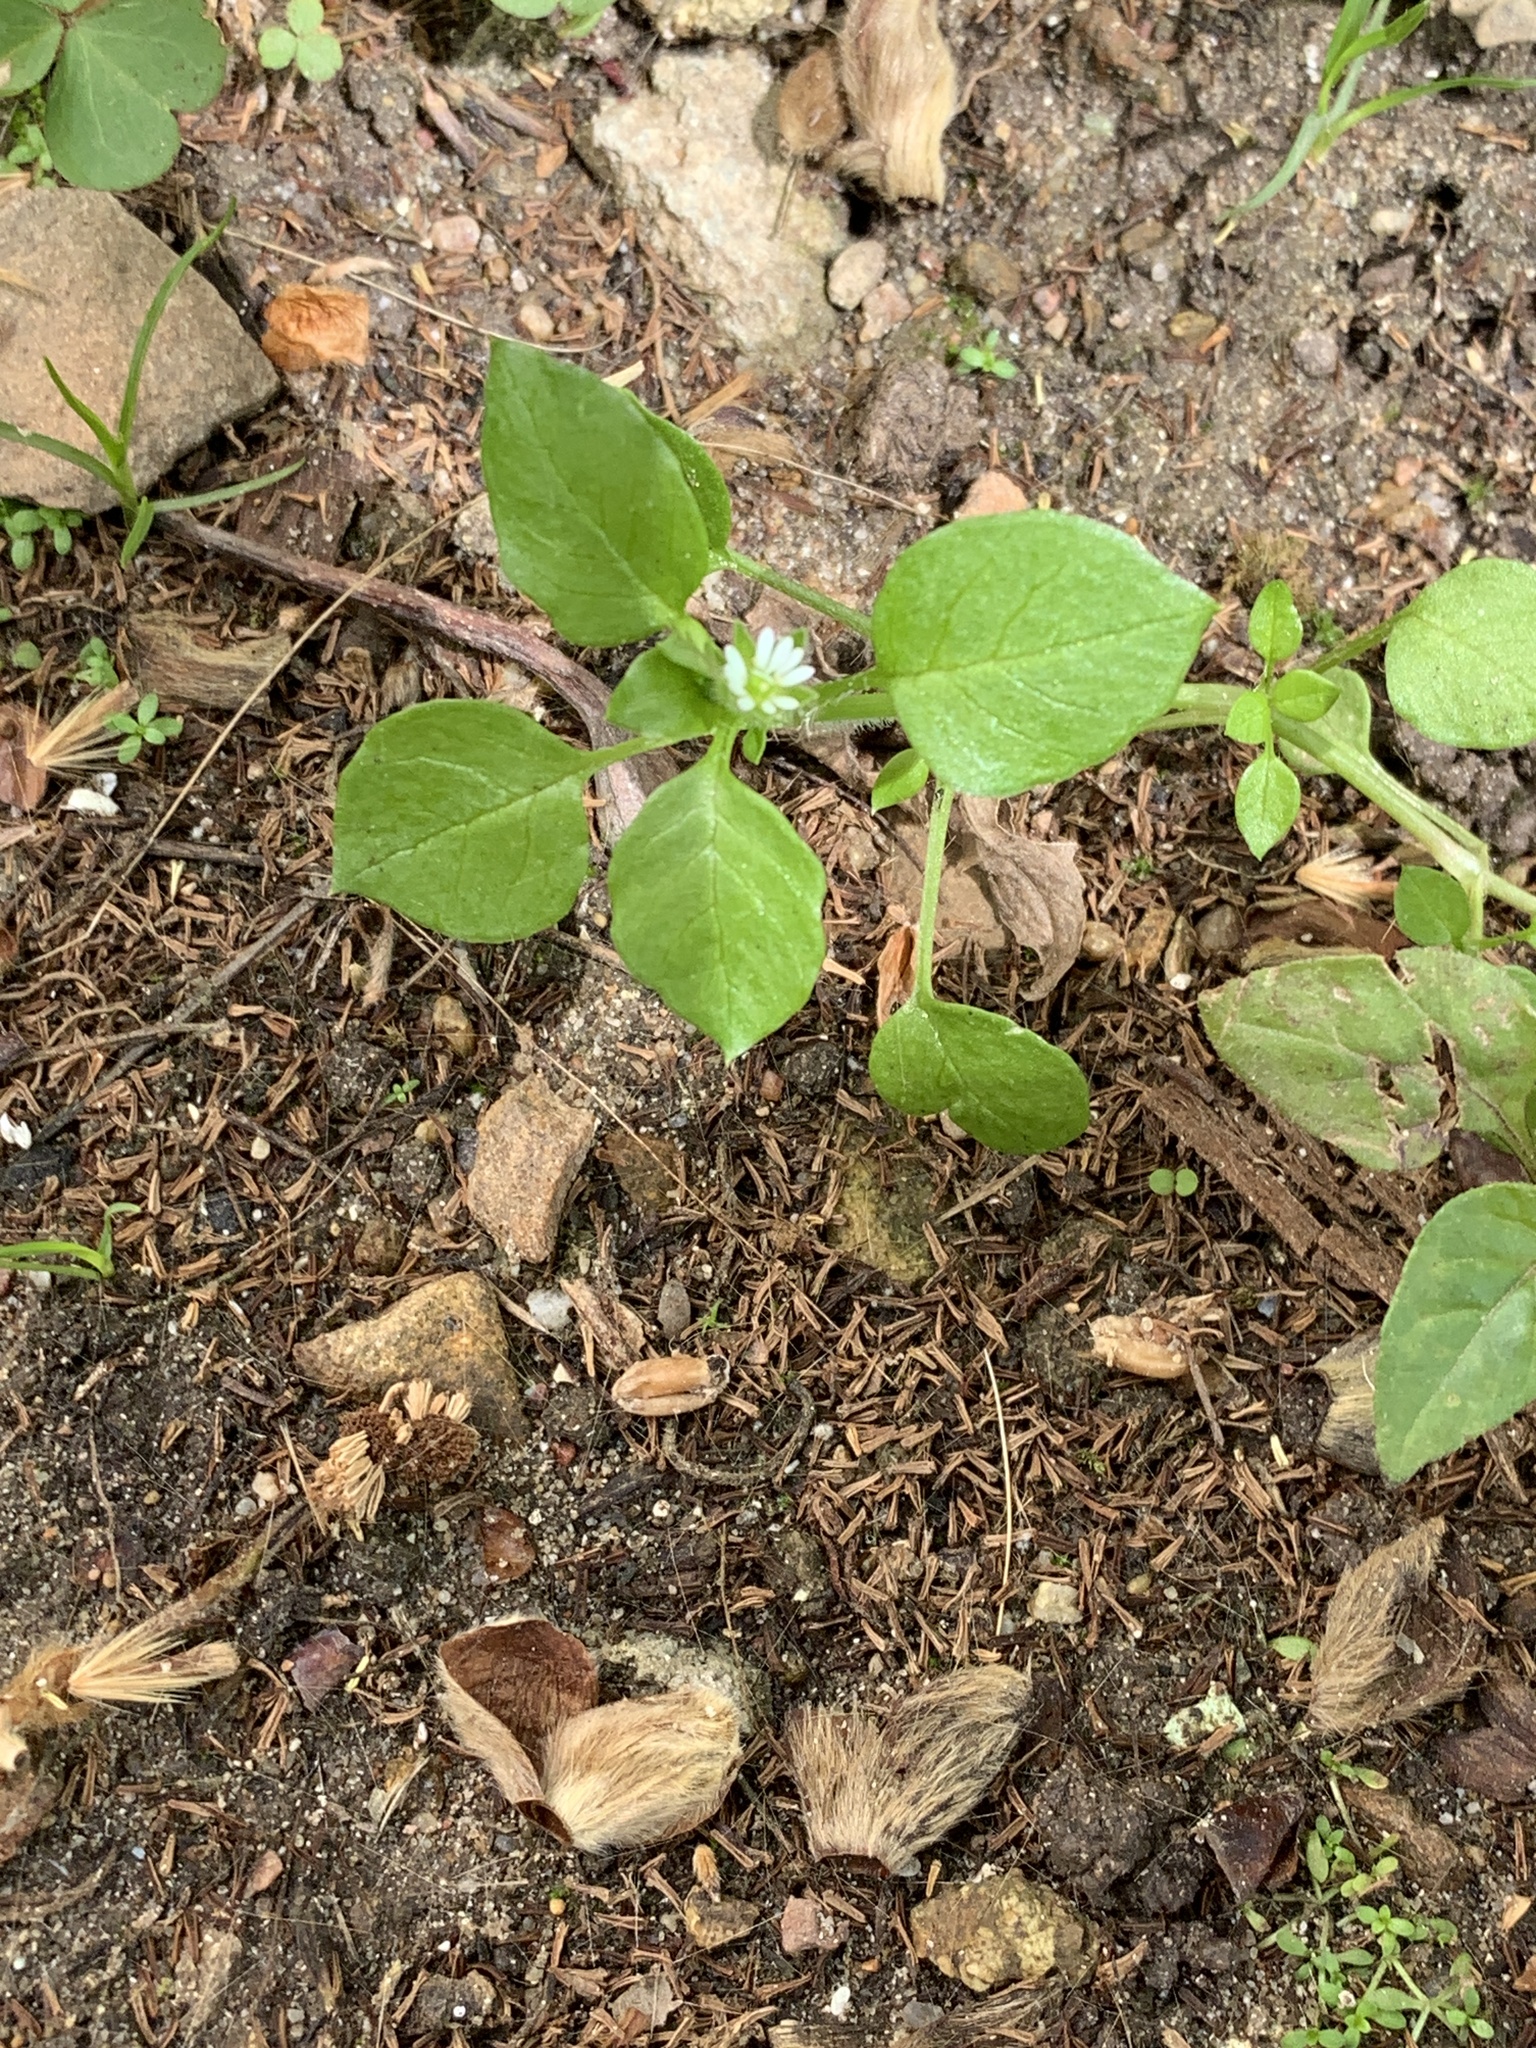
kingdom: Plantae
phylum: Tracheophyta
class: Magnoliopsida
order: Caryophyllales
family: Caryophyllaceae
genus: Stellaria
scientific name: Stellaria media
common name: Common chickweed
